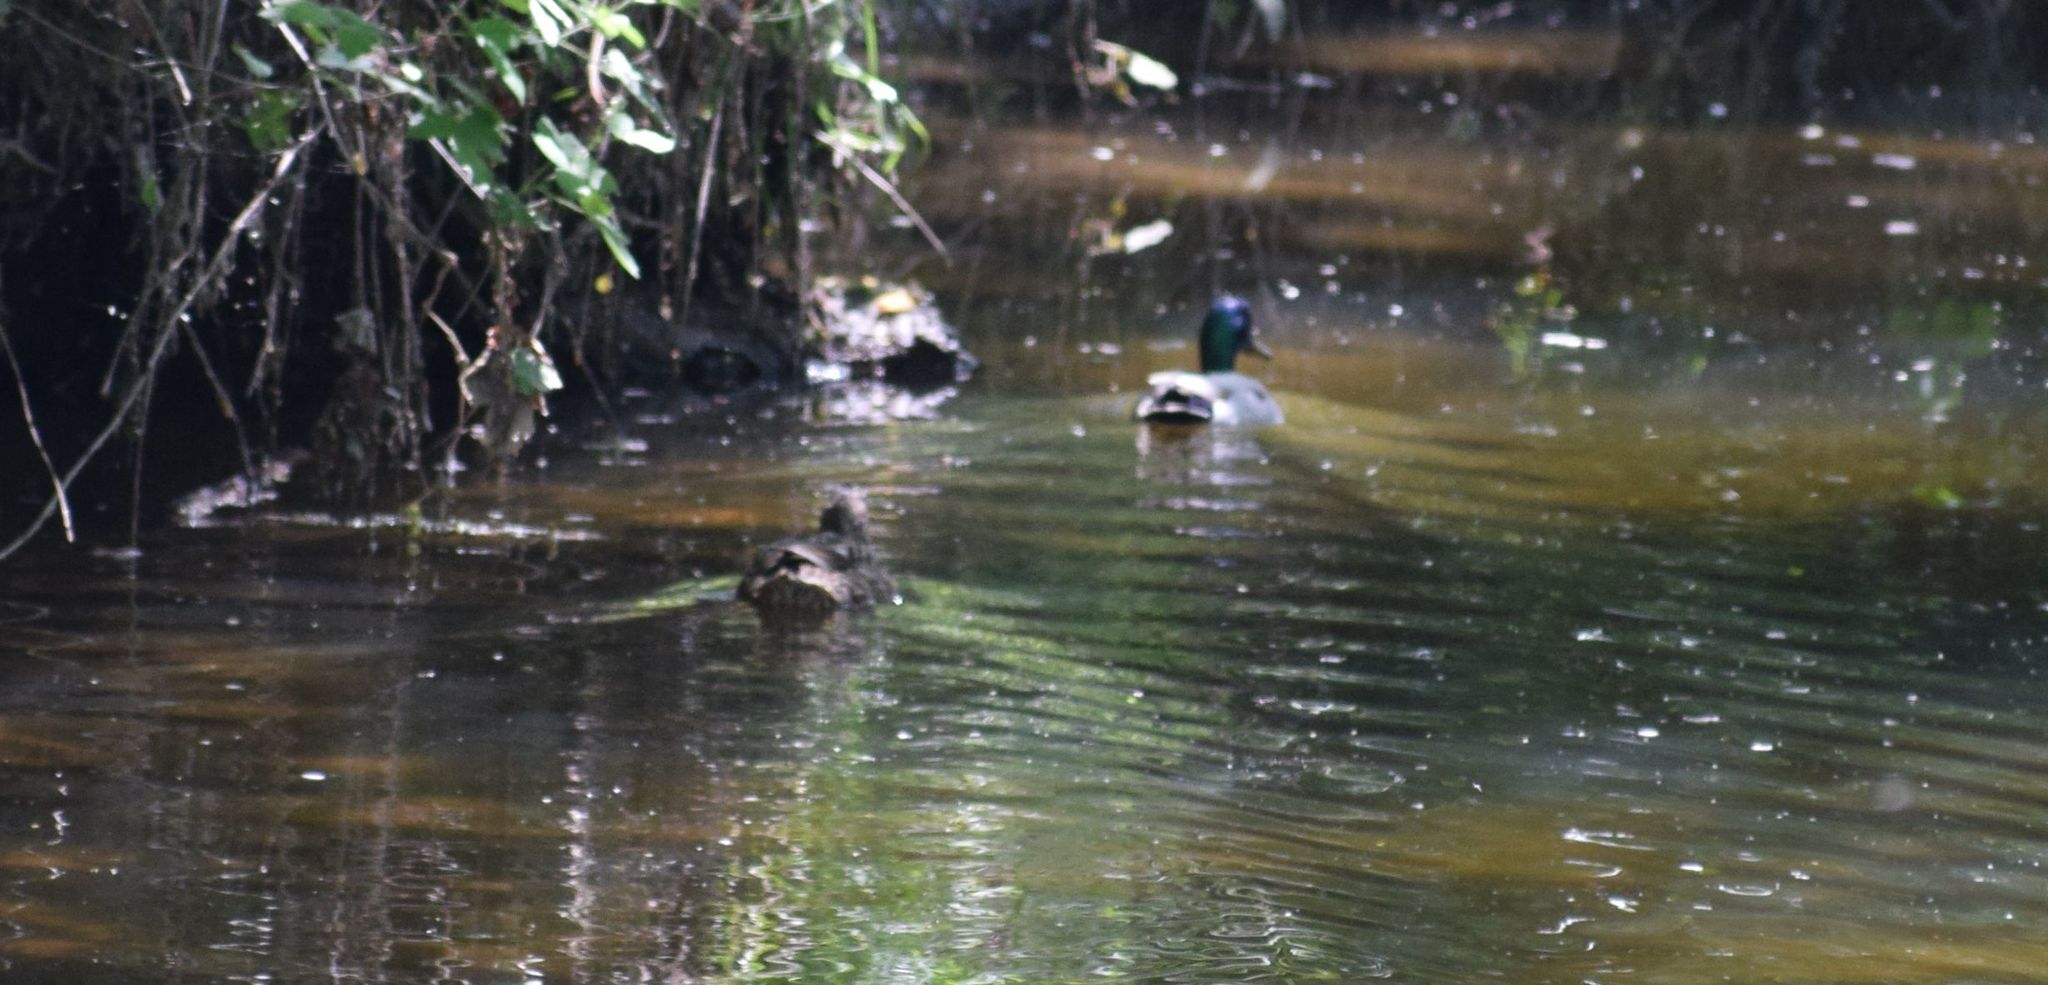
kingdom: Animalia
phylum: Chordata
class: Aves
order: Anseriformes
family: Anatidae
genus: Anas
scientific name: Anas platyrhynchos
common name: Mallard
